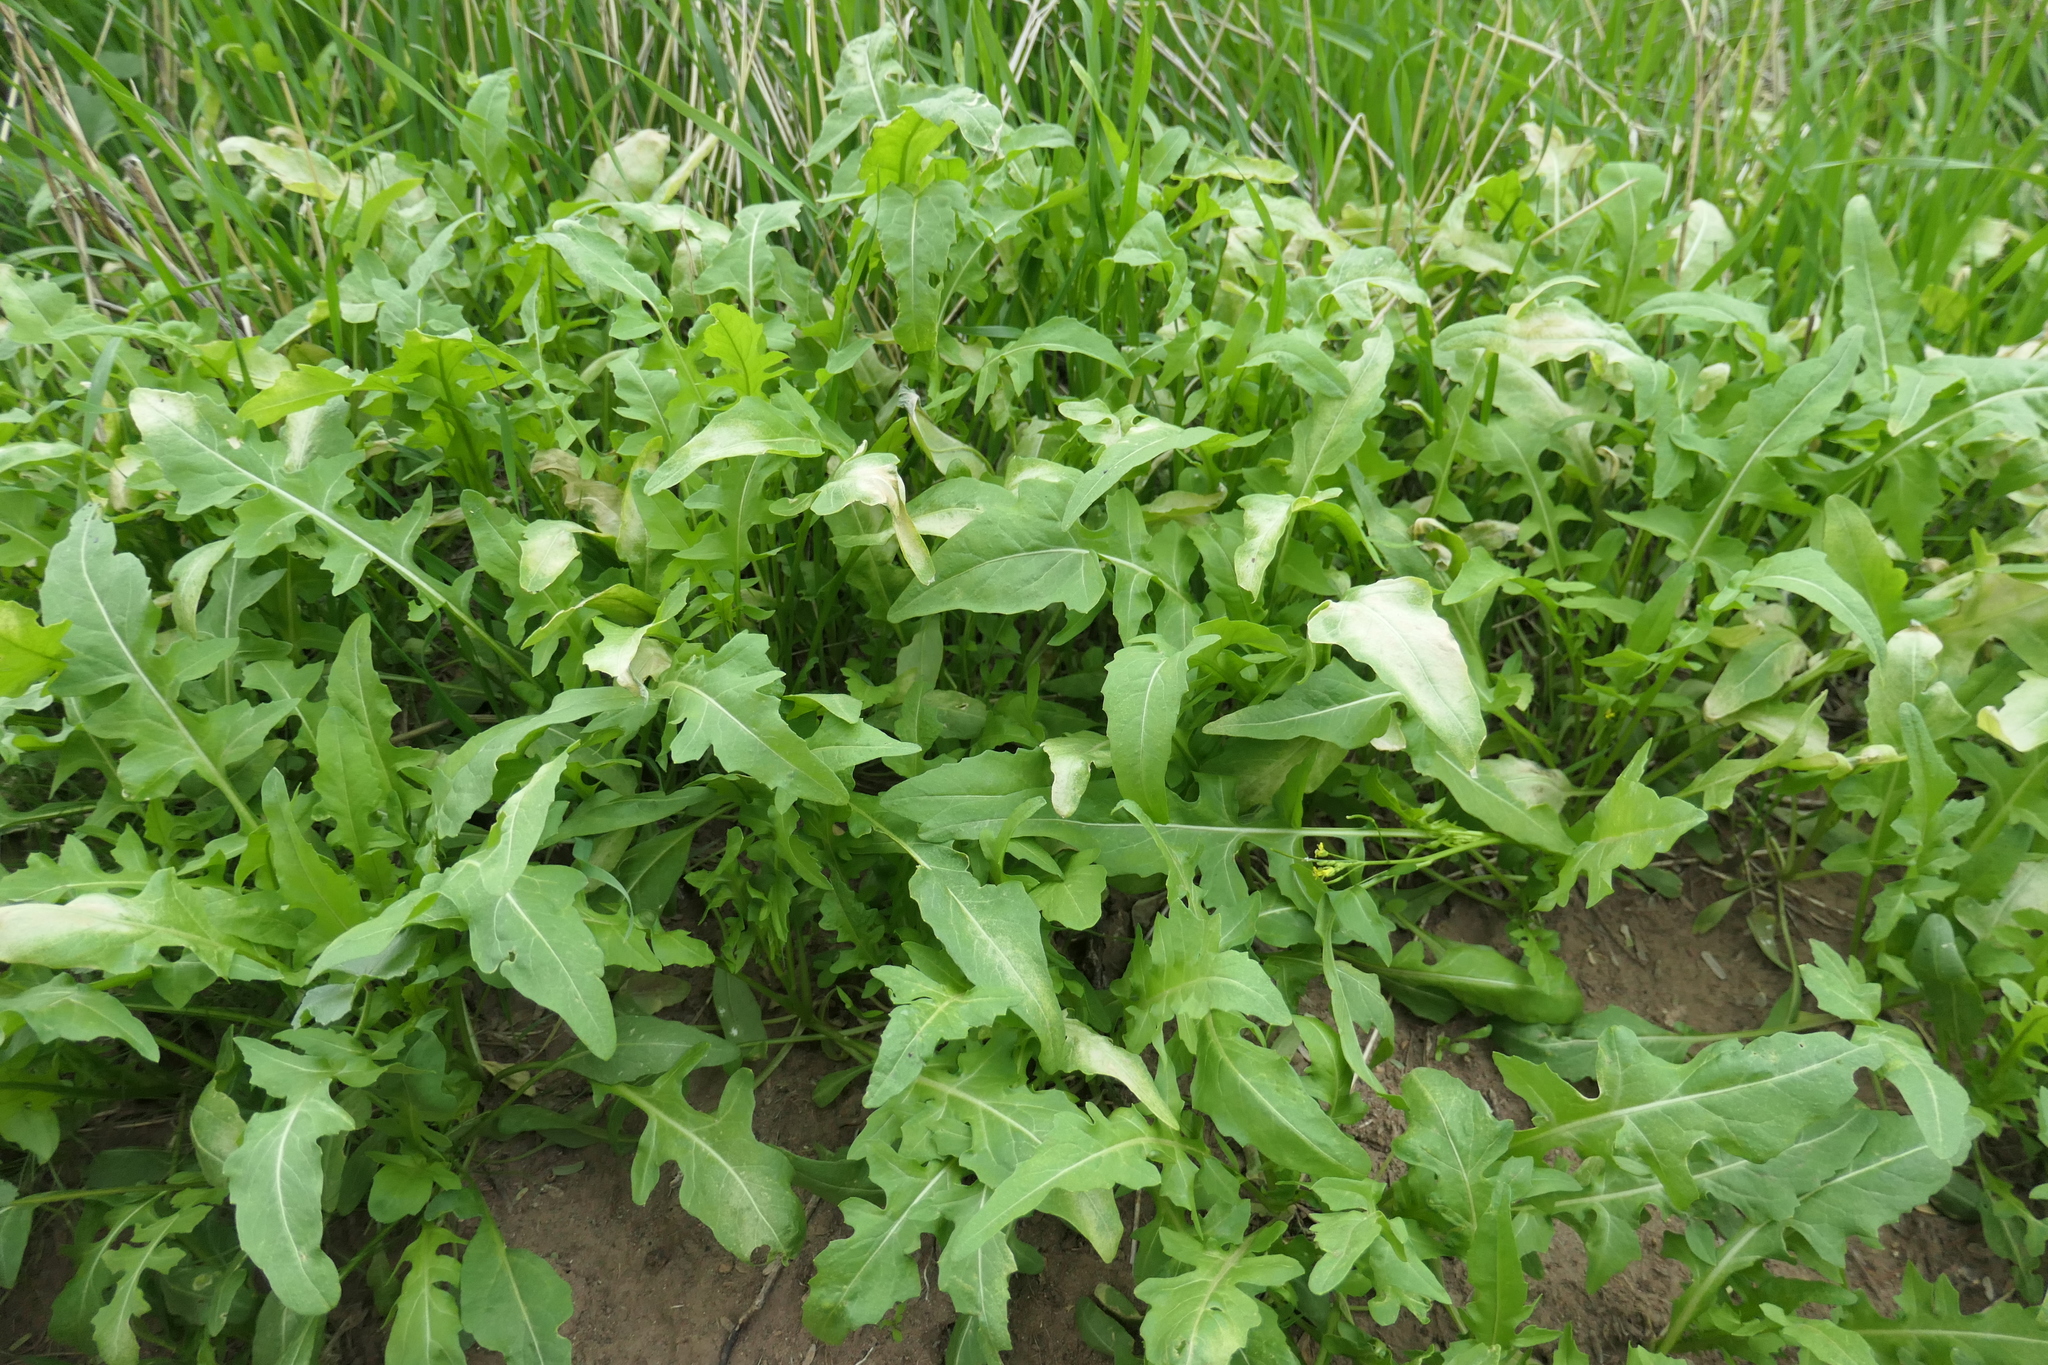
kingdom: Plantae
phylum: Tracheophyta
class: Magnoliopsida
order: Brassicales
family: Brassicaceae
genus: Sisymbrium
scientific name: Sisymbrium irio
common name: London rocket
